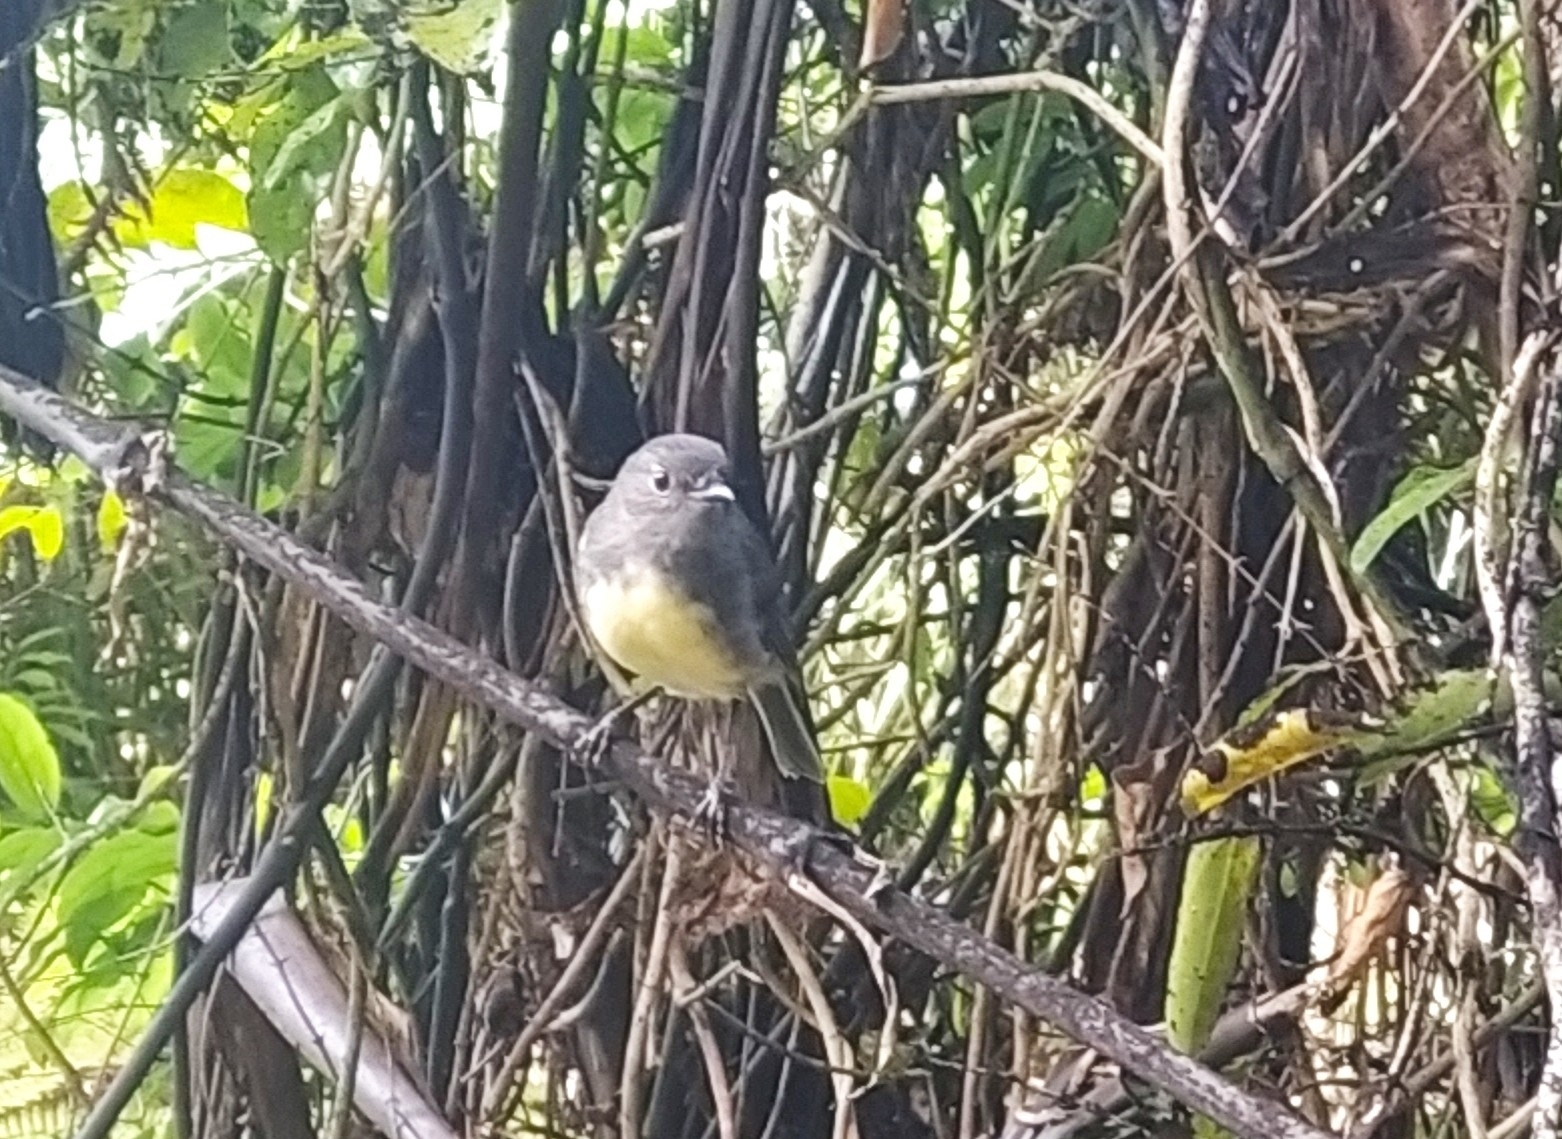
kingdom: Animalia
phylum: Chordata
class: Aves
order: Passeriformes
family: Petroicidae
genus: Petroica
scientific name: Petroica australis
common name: New zealand robin
